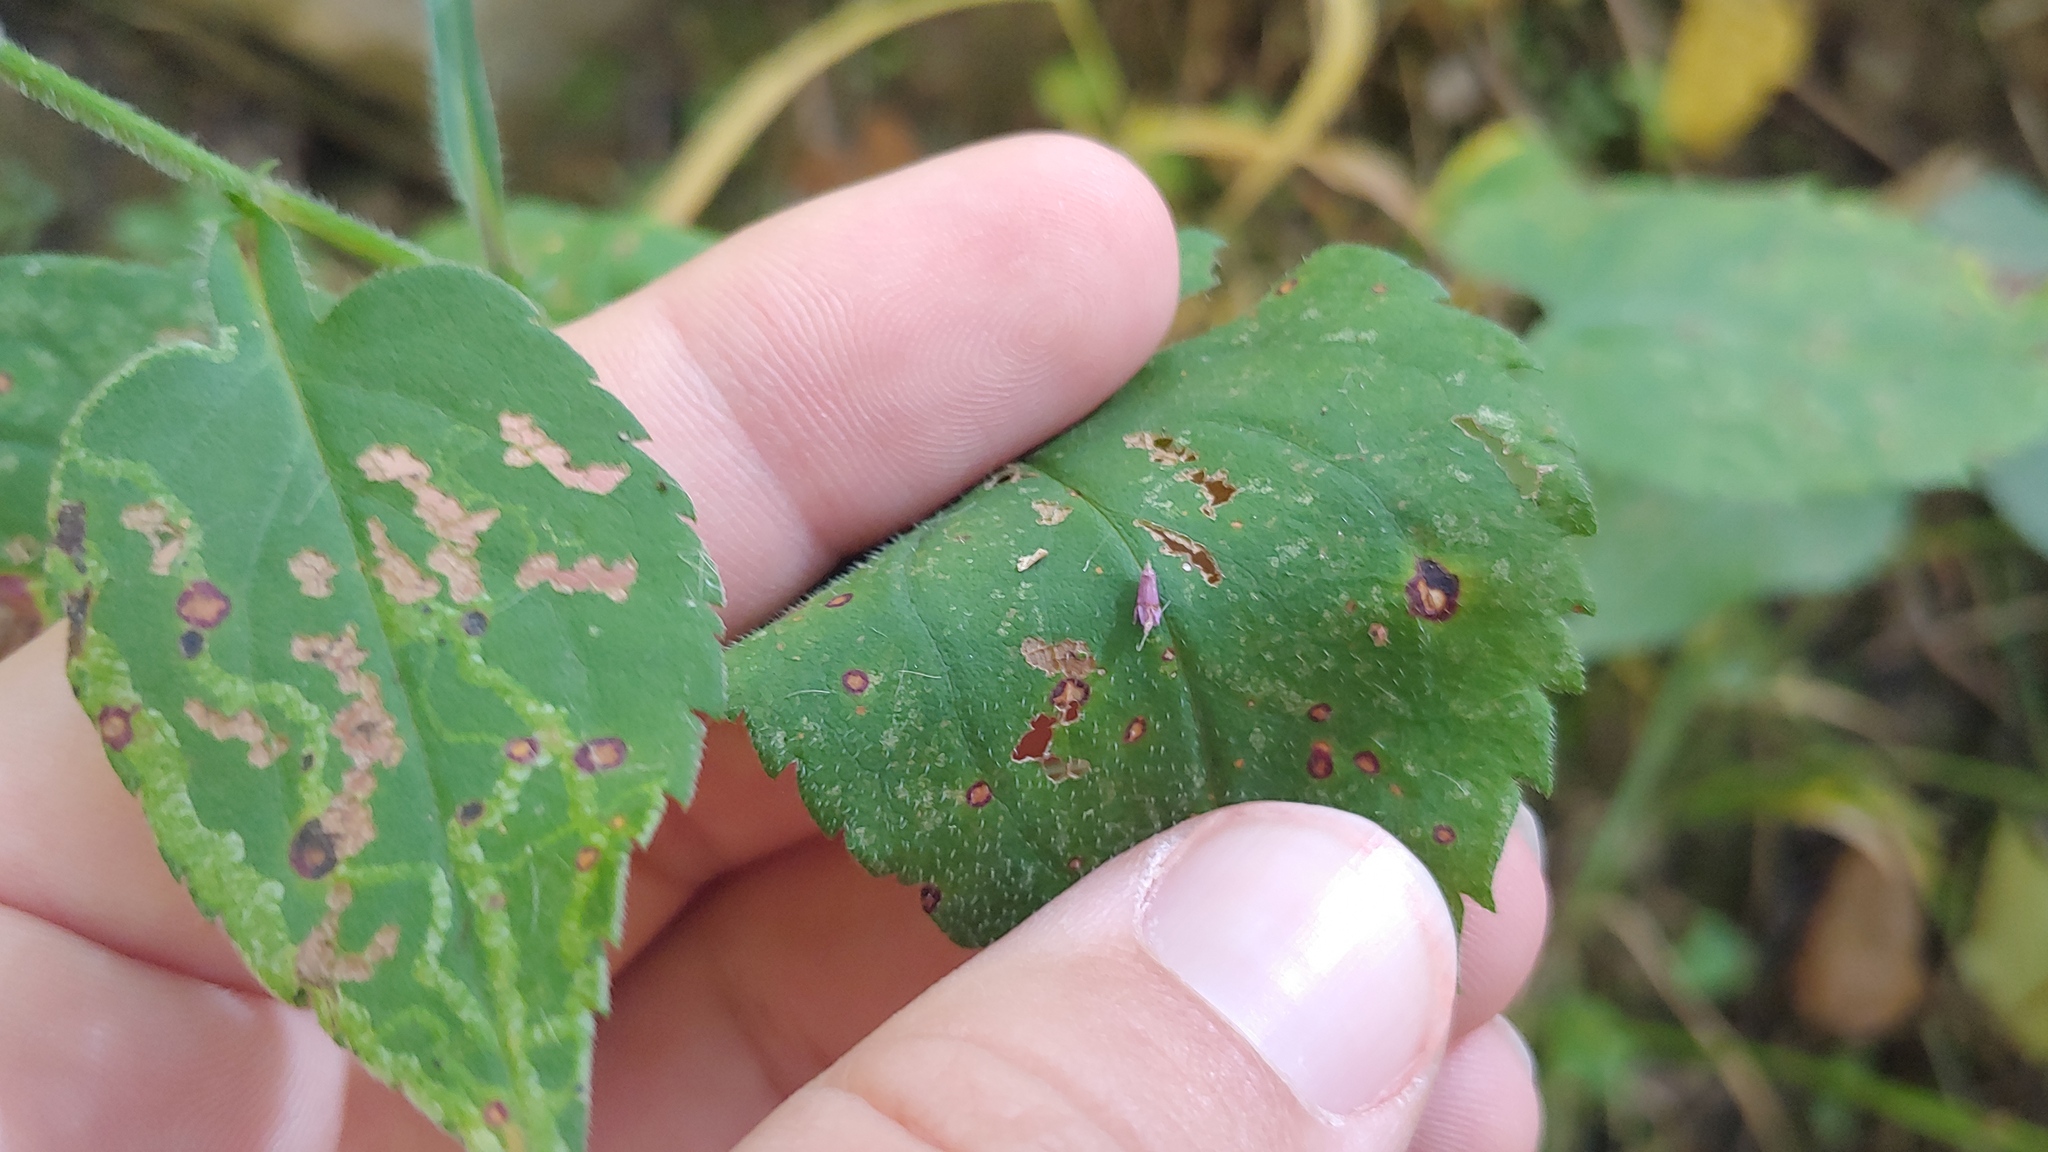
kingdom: Plantae
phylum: Tracheophyta
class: Magnoliopsida
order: Asterales
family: Asteraceae
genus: Symphyotrichum
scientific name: Symphyotrichum cordifolium
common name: Beeweed
